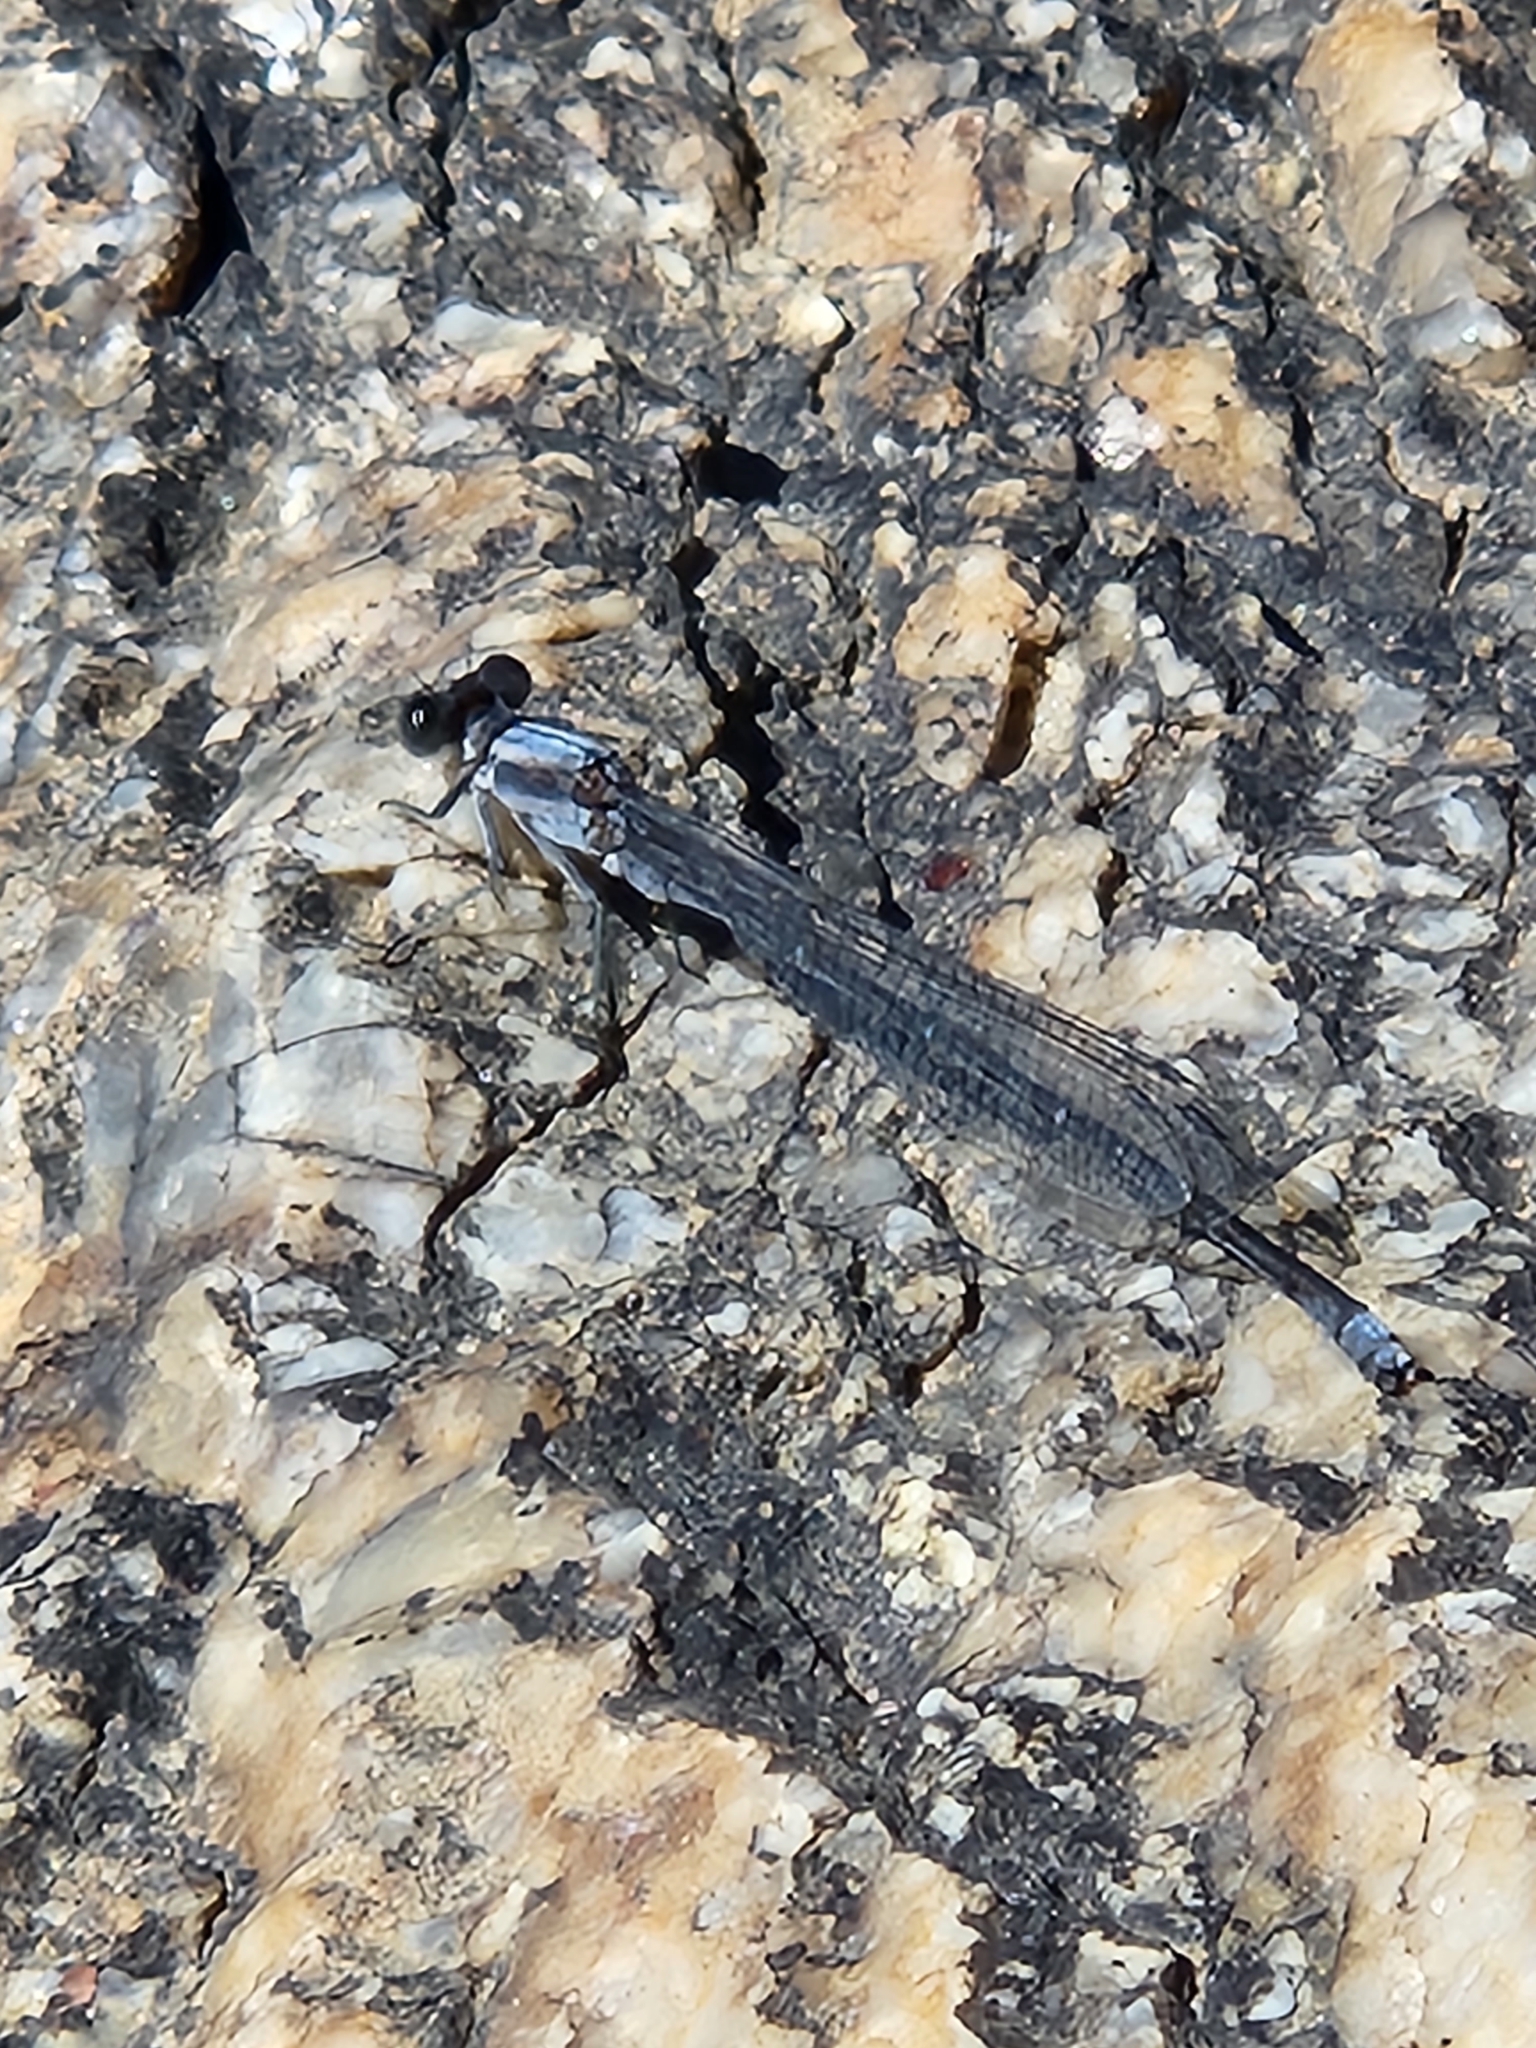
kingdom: Animalia
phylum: Arthropoda
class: Insecta
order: Odonata
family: Coenagrionidae
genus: Argia
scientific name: Argia moesta
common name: Powdered dancer
